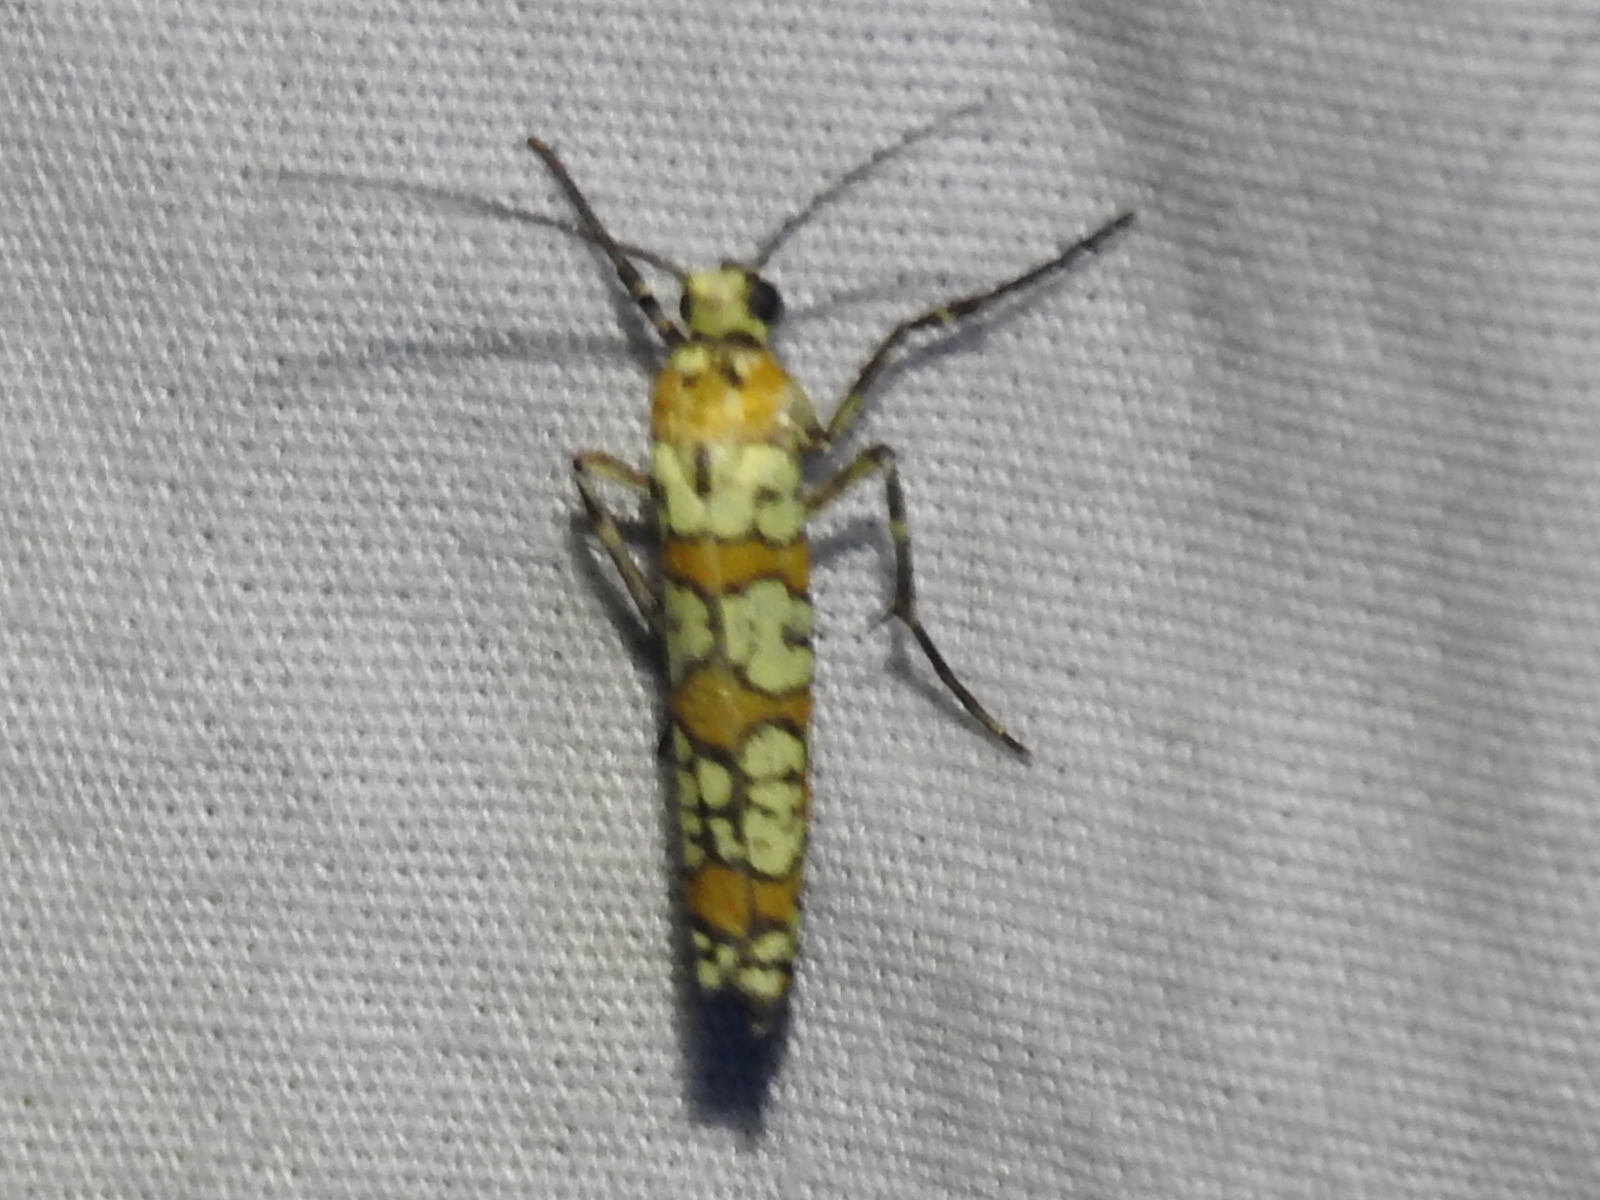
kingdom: Animalia
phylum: Arthropoda
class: Insecta
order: Lepidoptera
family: Attevidae
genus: Atteva
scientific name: Atteva punctella
